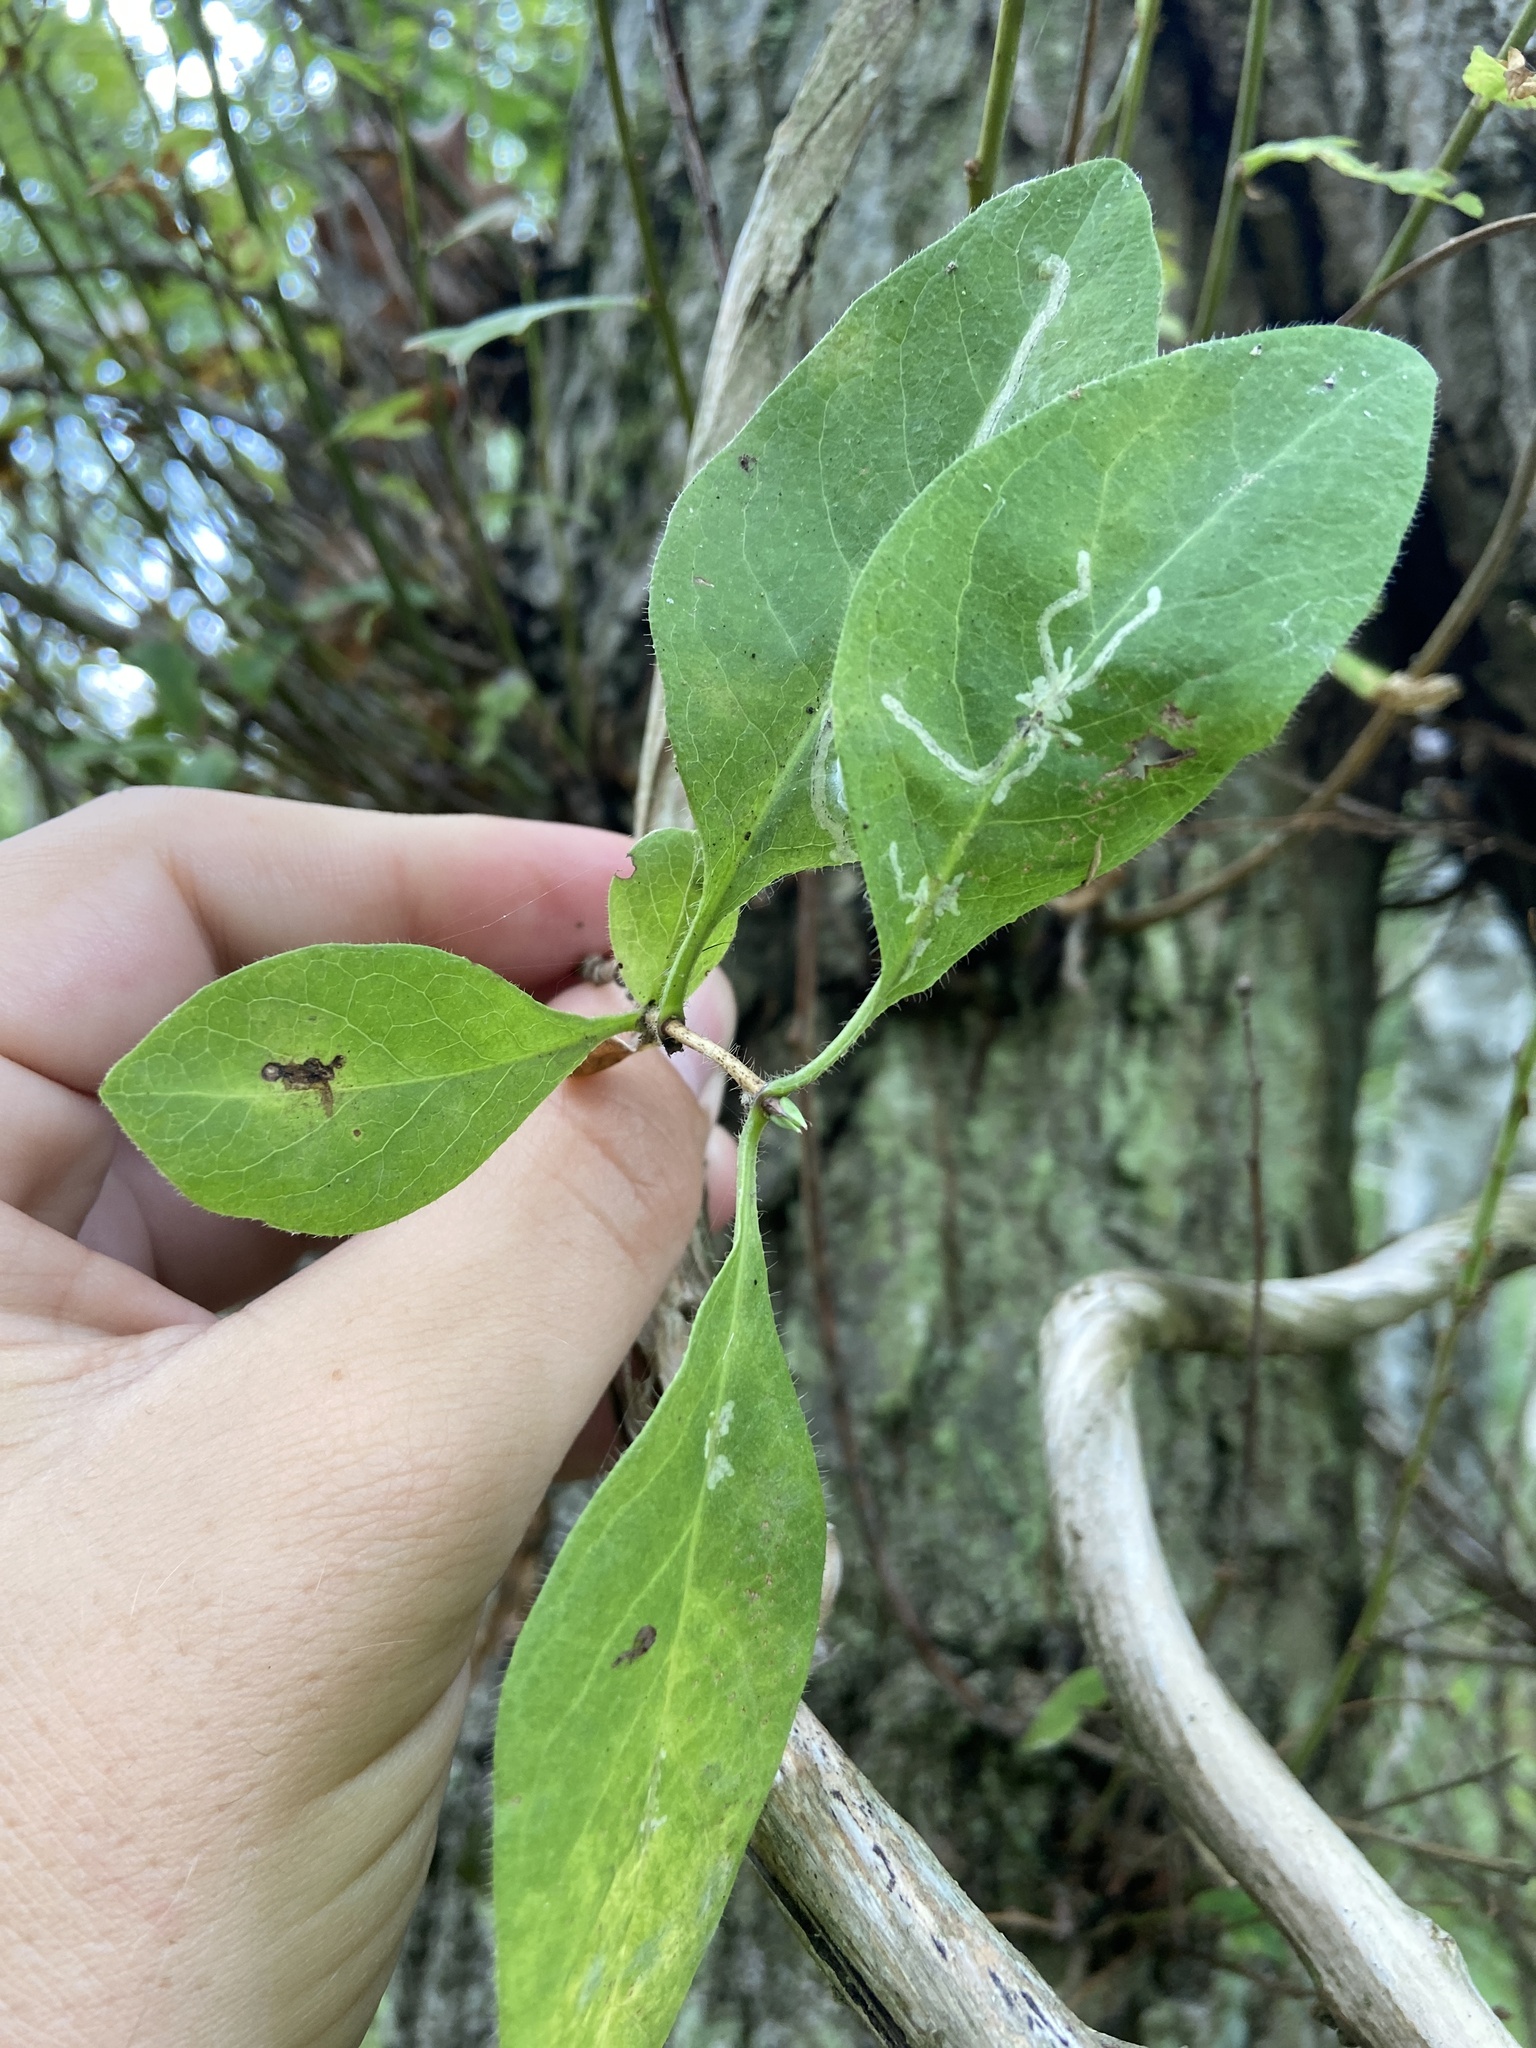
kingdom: Plantae
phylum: Tracheophyta
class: Magnoliopsida
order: Dipsacales
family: Caprifoliaceae
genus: Lonicera
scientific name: Lonicera periclymenum
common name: European honeysuckle
